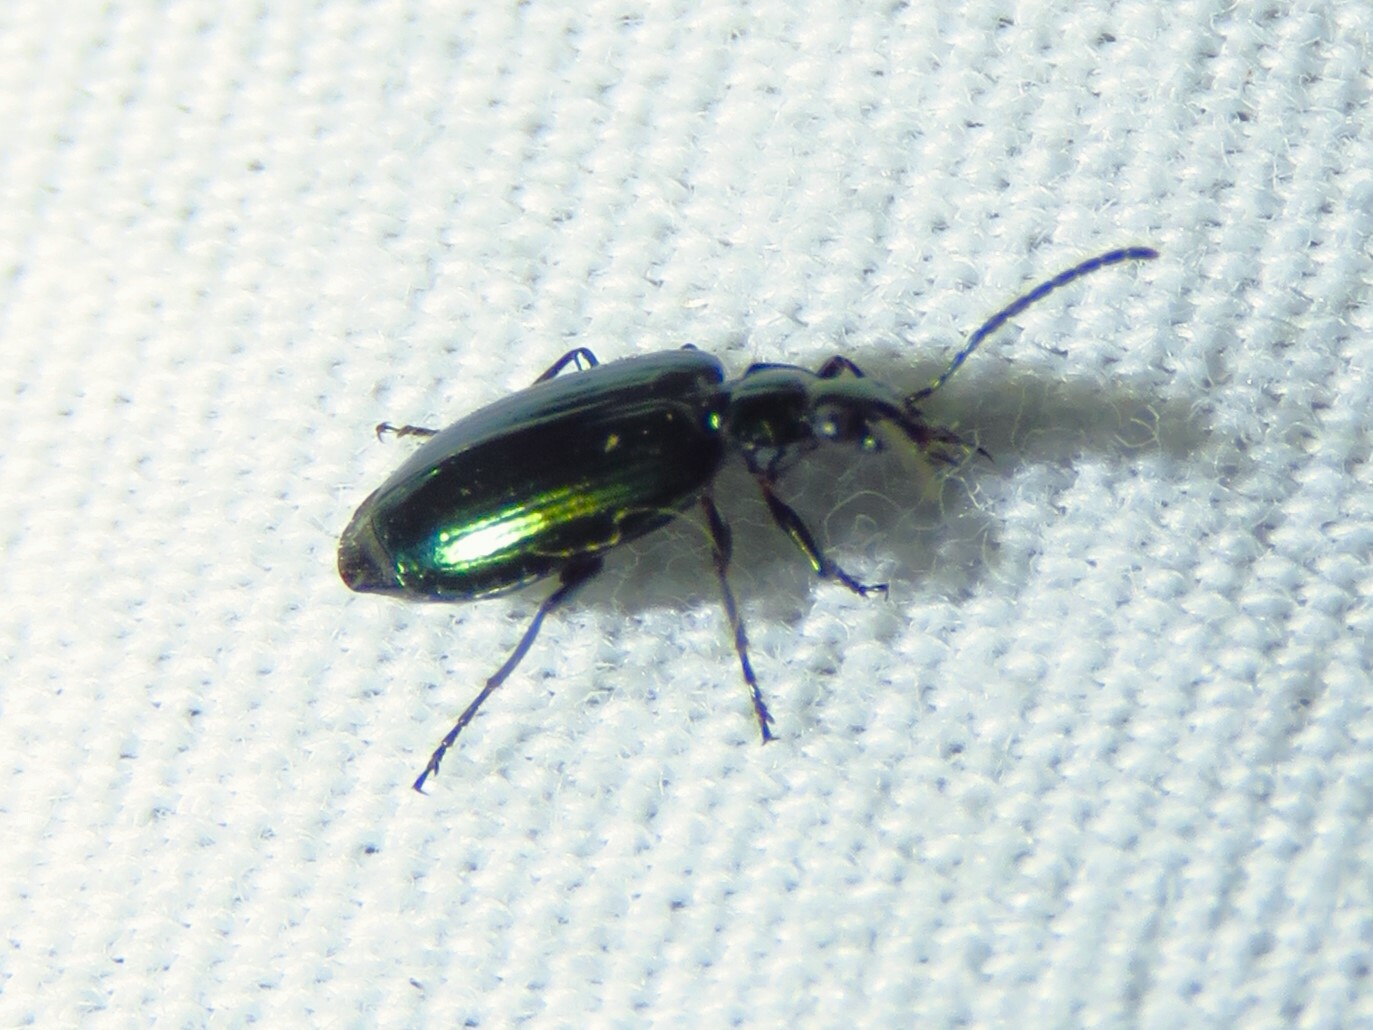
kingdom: Animalia
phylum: Arthropoda
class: Insecta
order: Coleoptera
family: Carabidae
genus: Lebia
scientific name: Lebia viridis
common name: Flower lebia beetle
